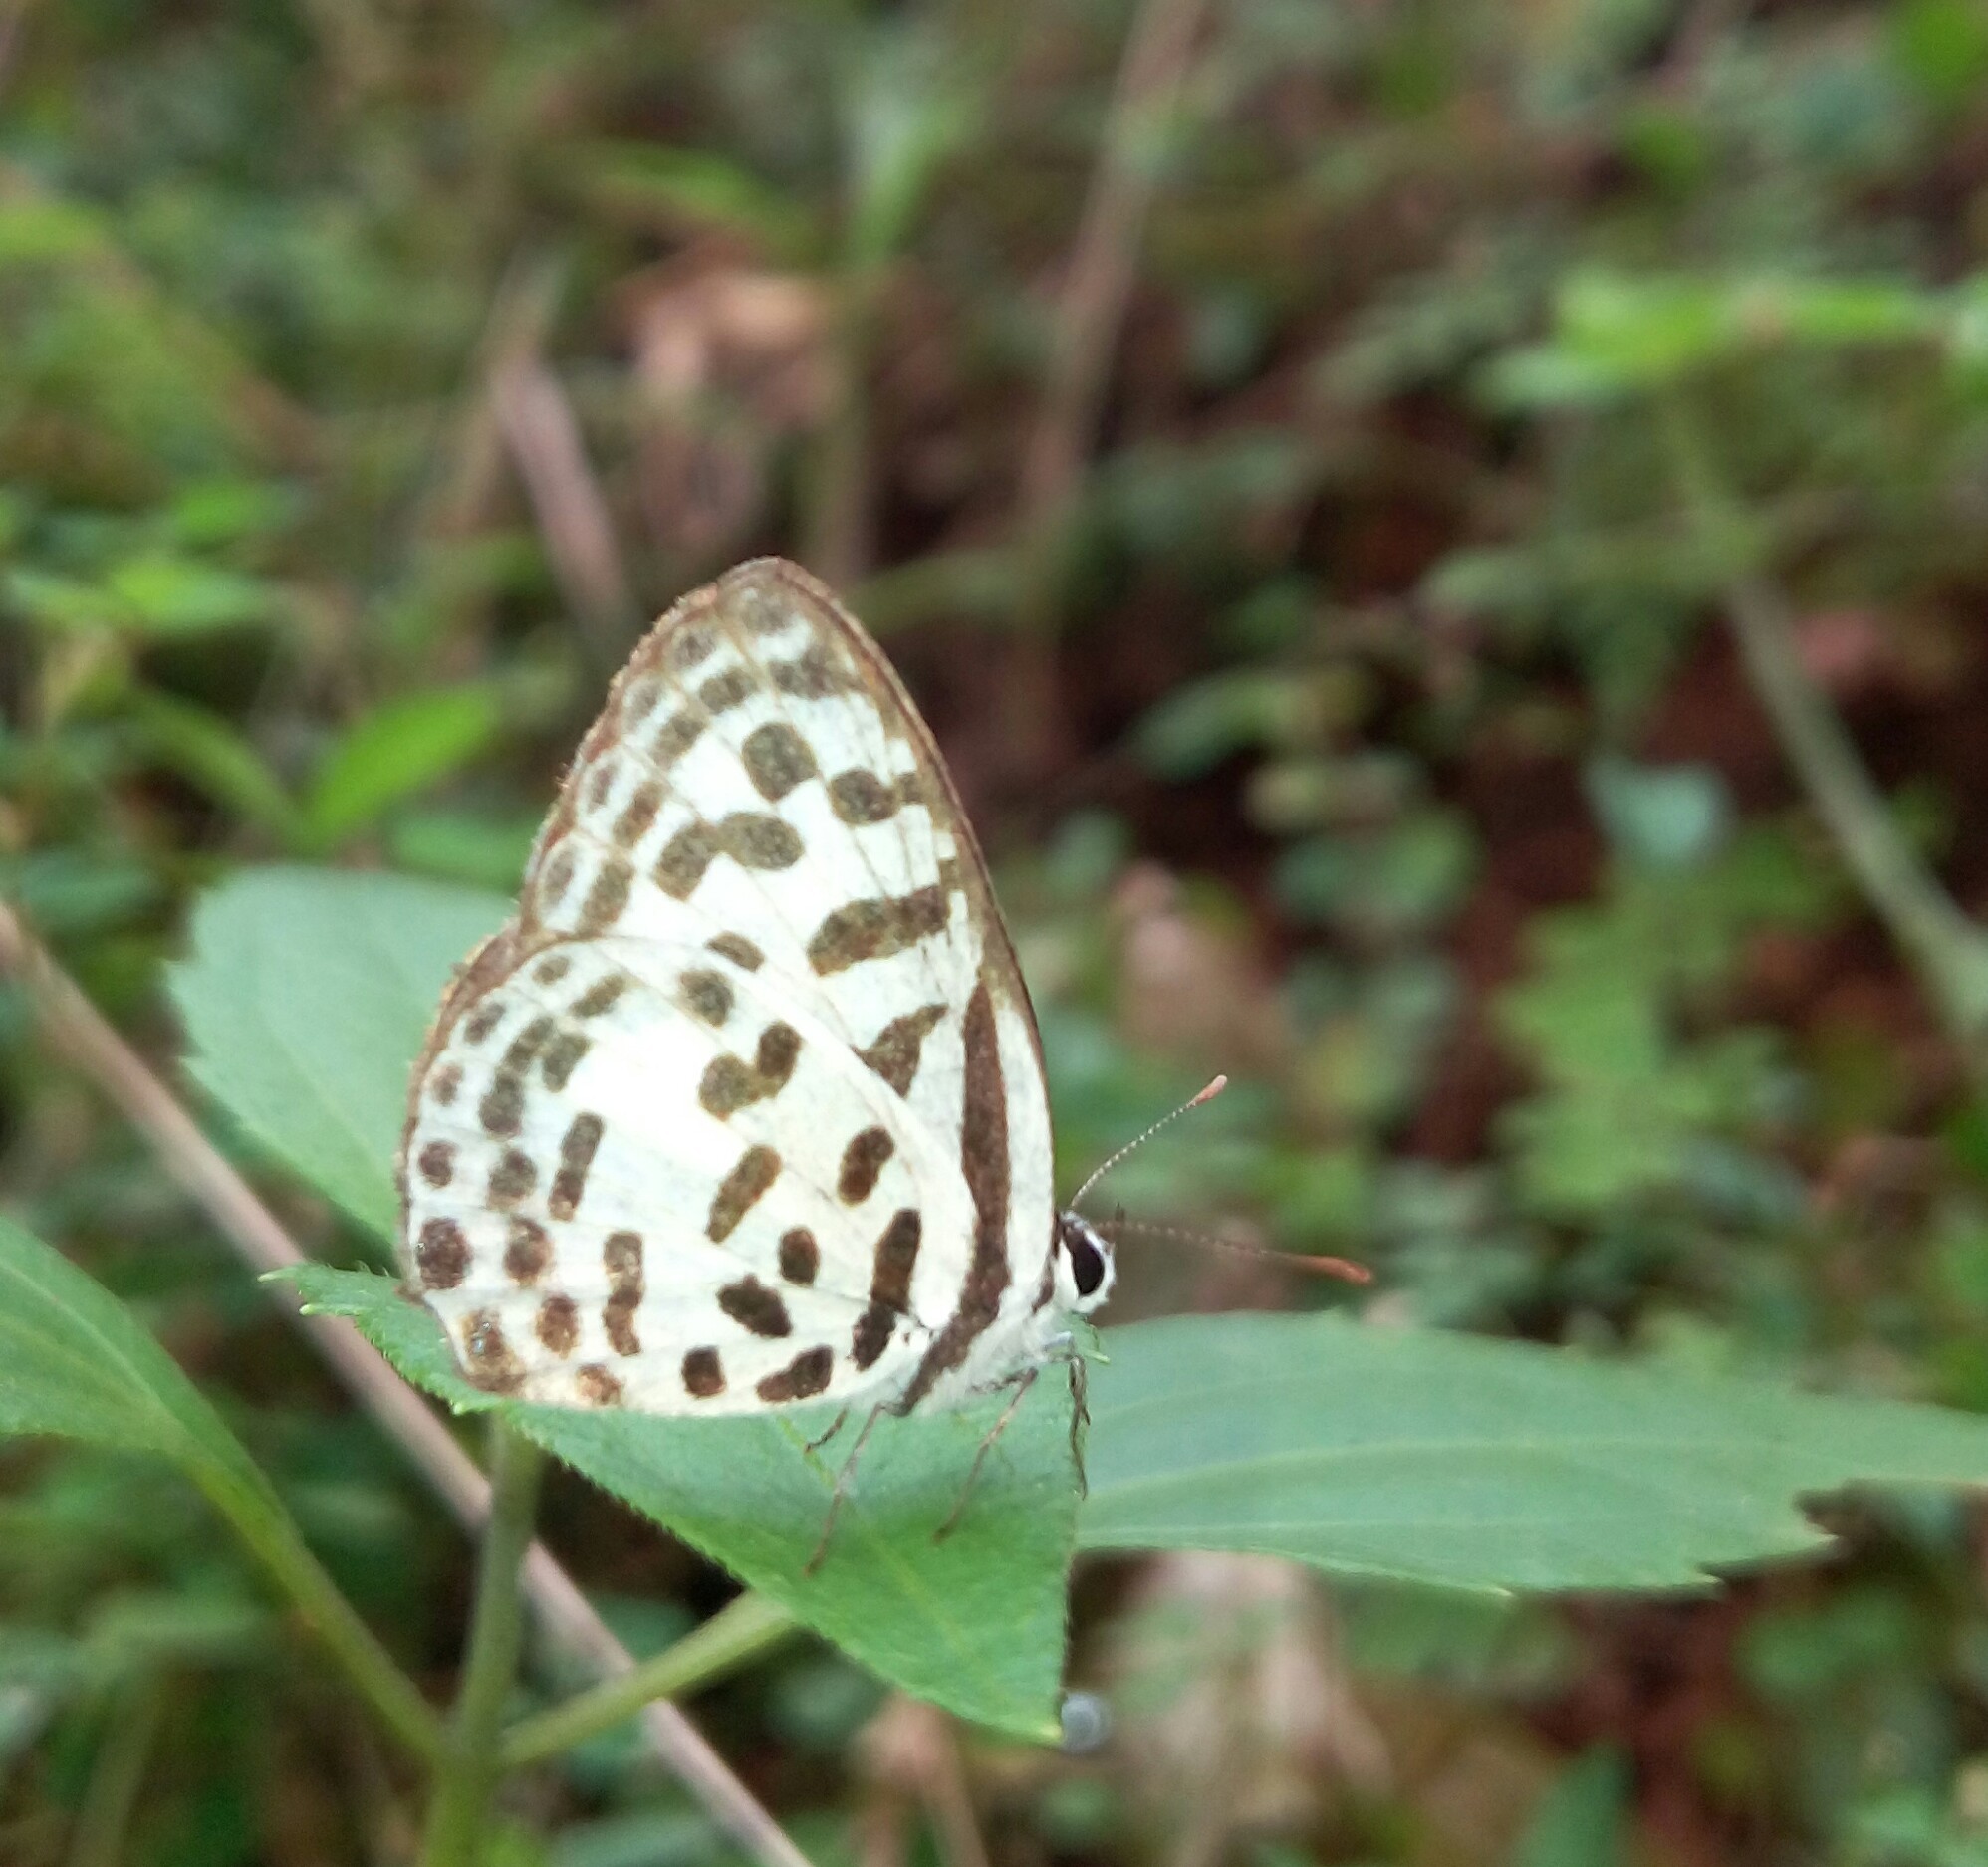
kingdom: Animalia
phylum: Arthropoda
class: Insecta
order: Lepidoptera
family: Lycaenidae
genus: Castalius
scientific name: Castalius rosimon
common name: Common pierrot
